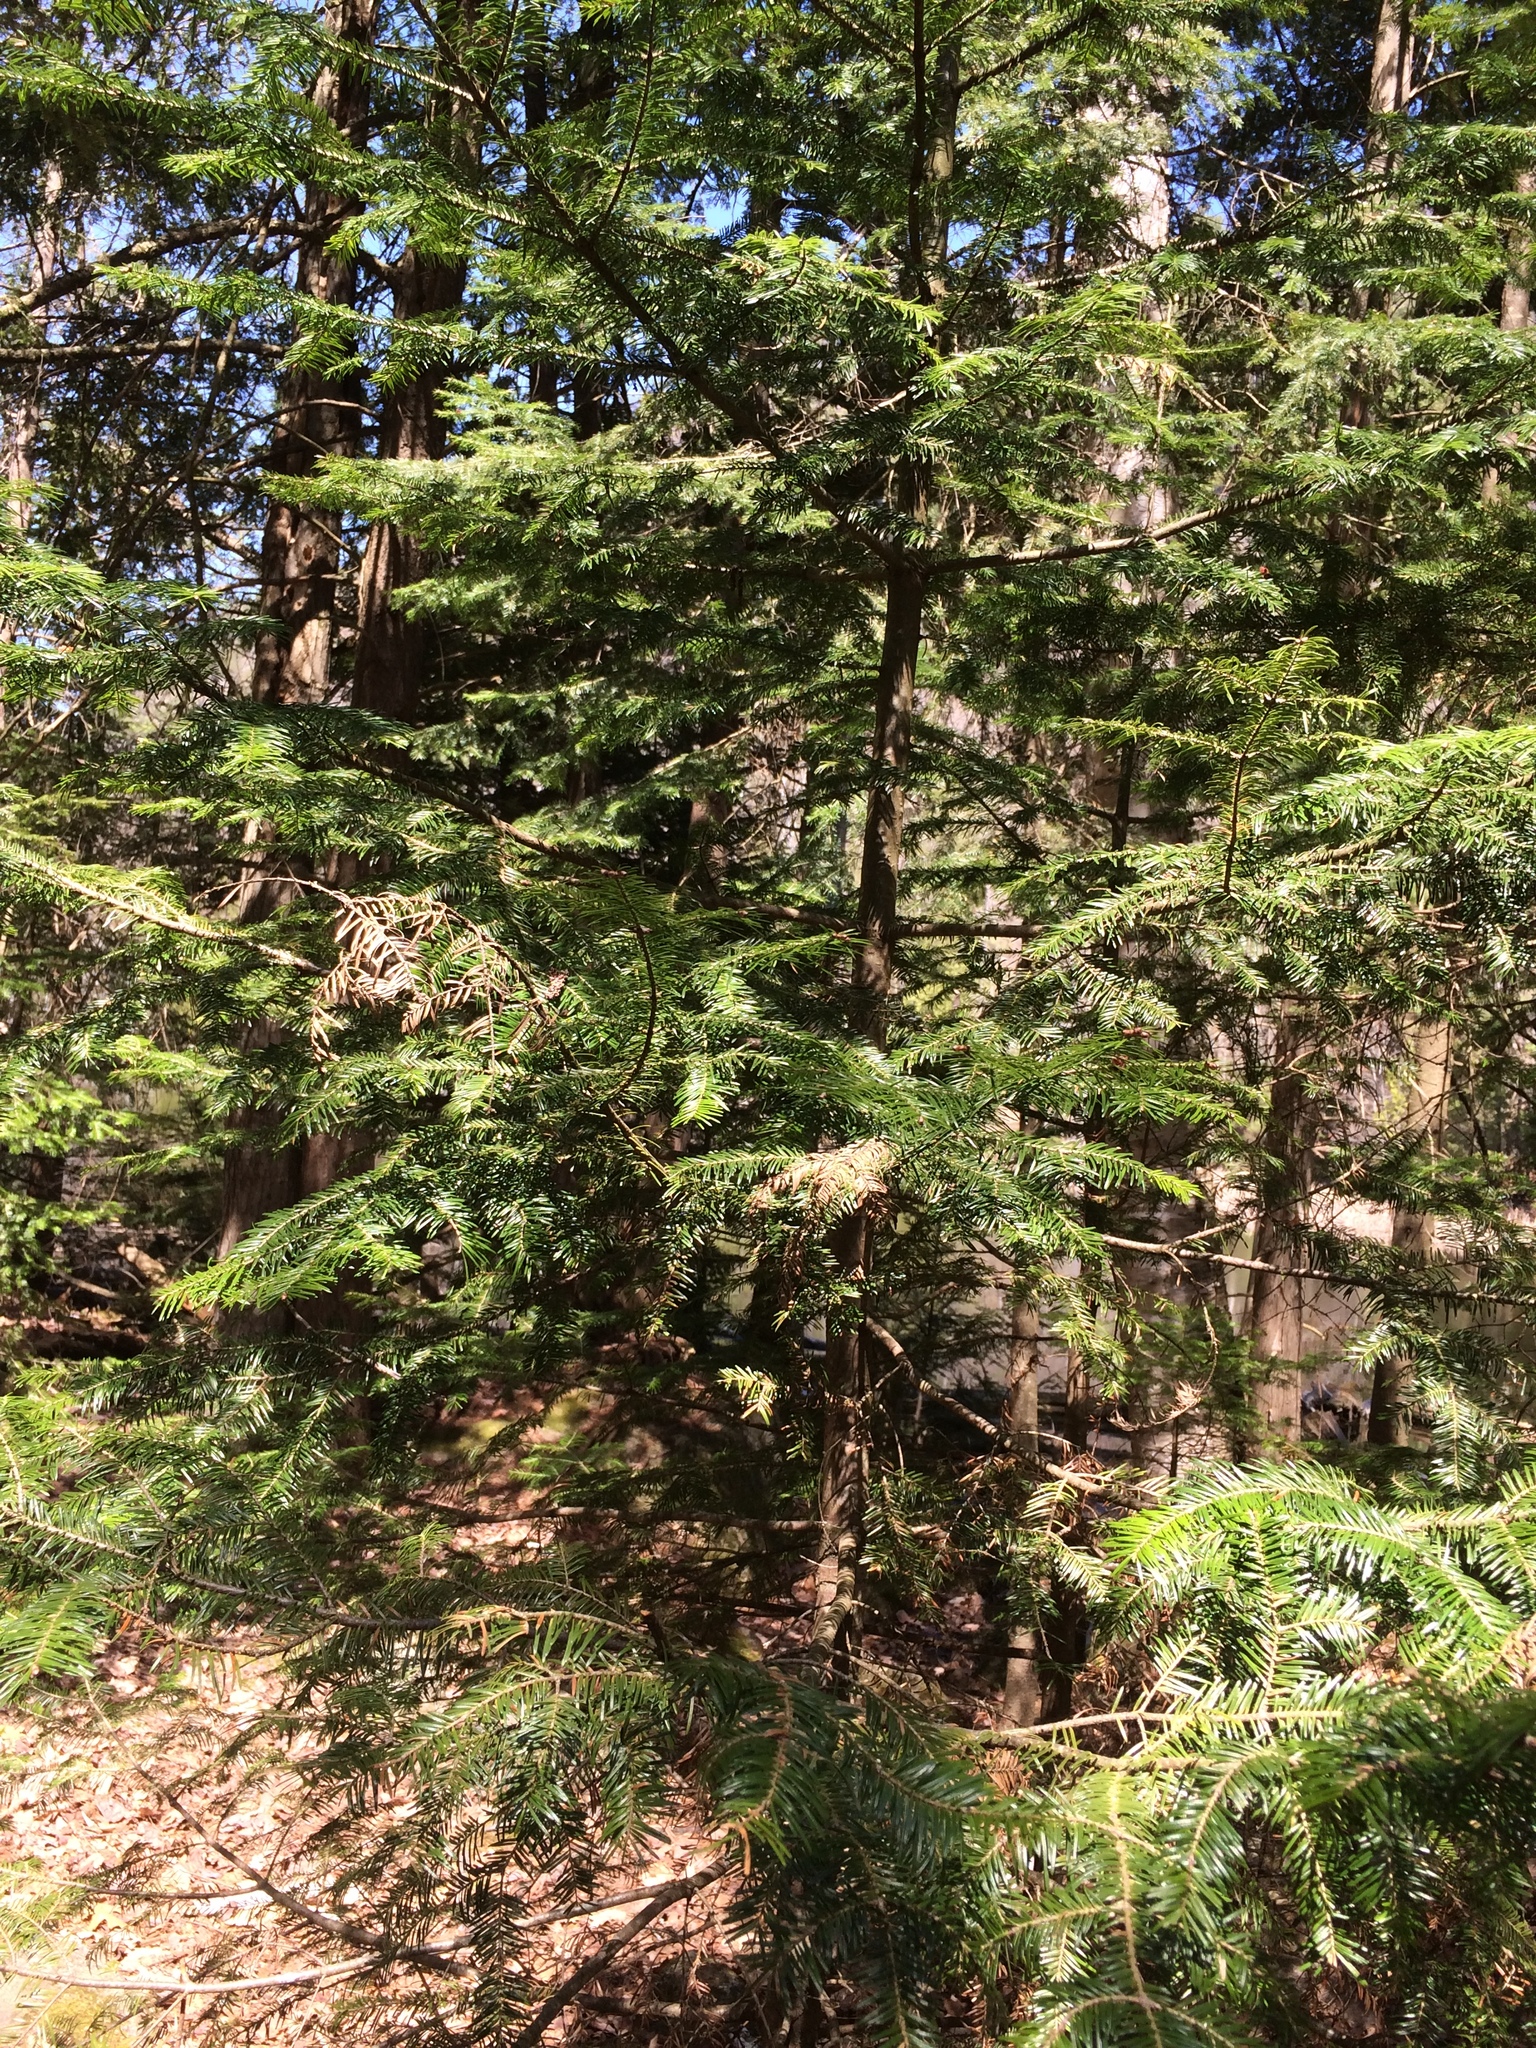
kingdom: Plantae
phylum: Tracheophyta
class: Pinopsida
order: Pinales
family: Pinaceae
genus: Abies
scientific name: Abies balsamea
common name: Balsam fir
